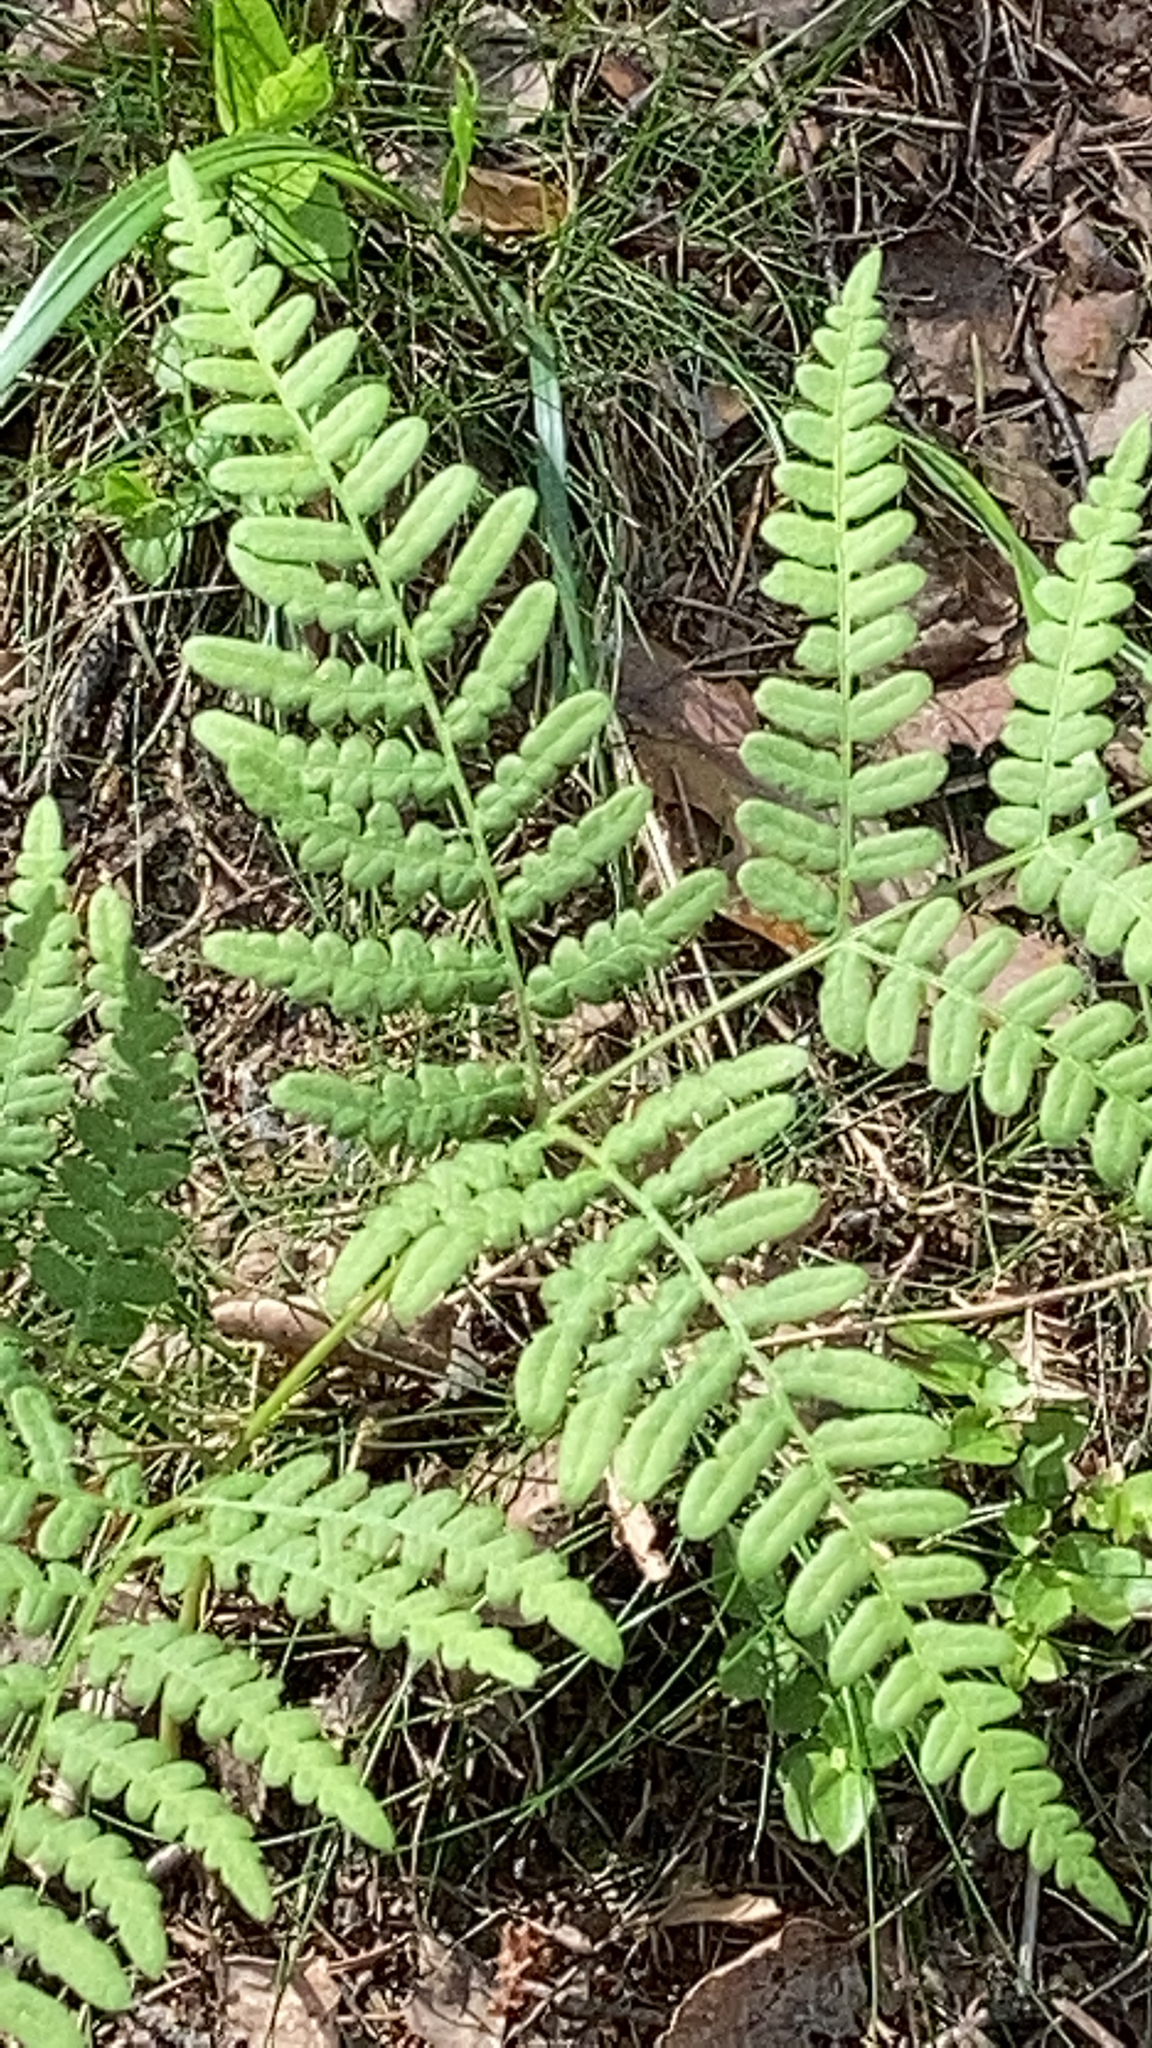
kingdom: Plantae
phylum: Tracheophyta
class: Polypodiopsida
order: Polypodiales
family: Dennstaedtiaceae
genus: Pteridium
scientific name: Pteridium aquilinum
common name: Bracken
